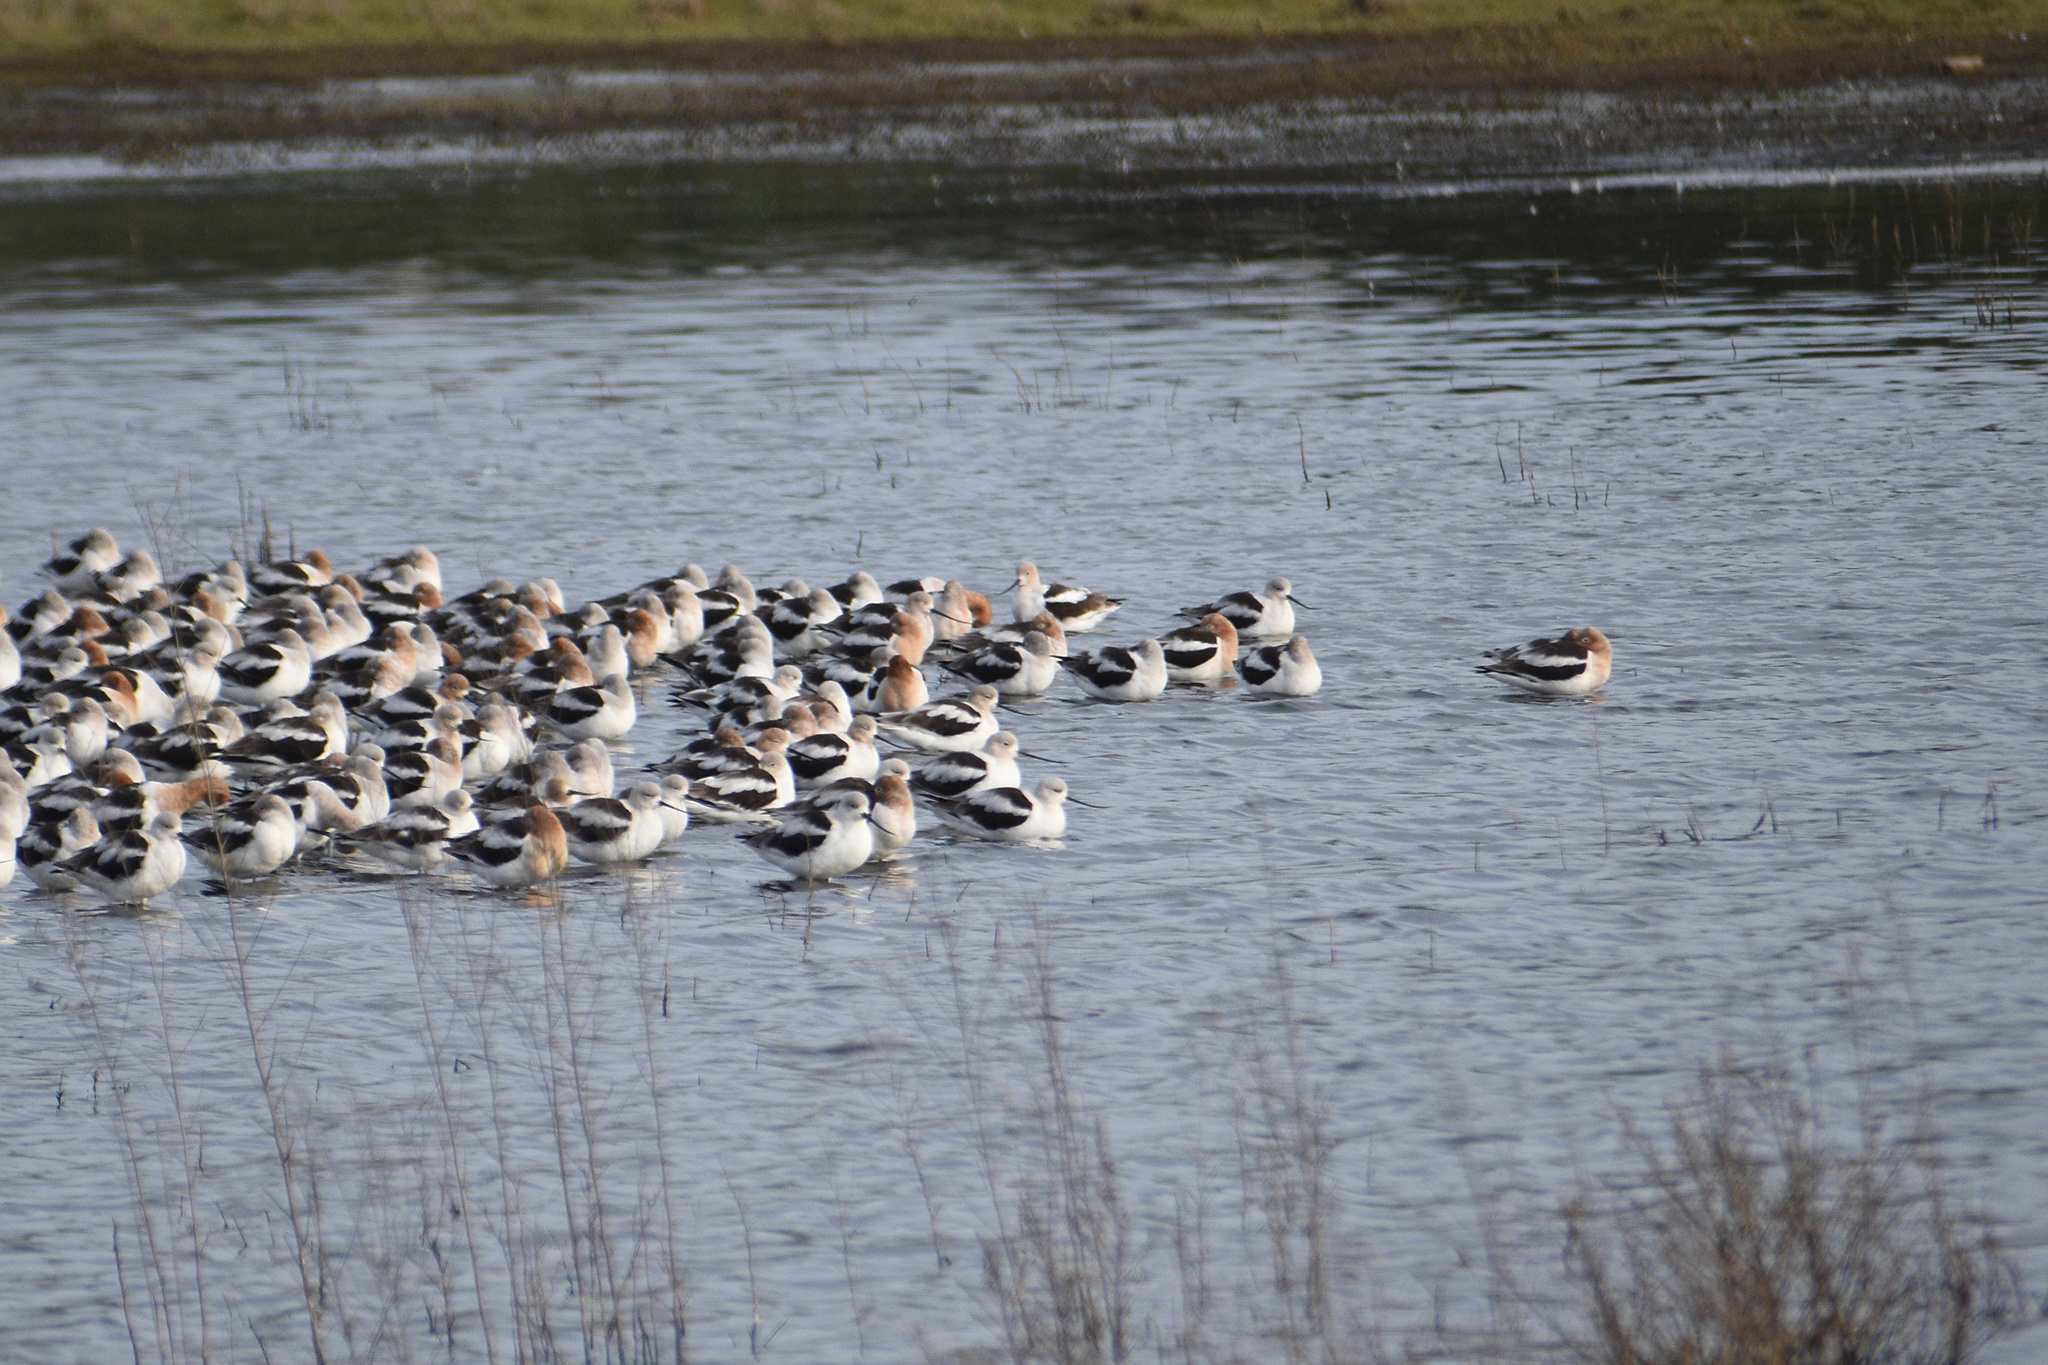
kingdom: Animalia
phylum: Chordata
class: Aves
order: Charadriiformes
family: Recurvirostridae
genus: Recurvirostra
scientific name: Recurvirostra americana
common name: American avocet
